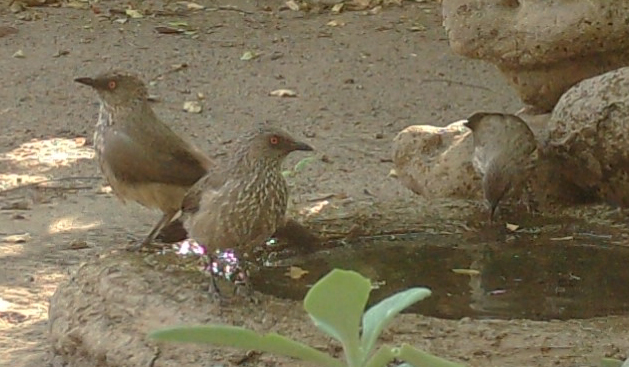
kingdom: Animalia
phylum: Chordata
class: Aves
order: Passeriformes
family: Leiothrichidae
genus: Turdoides
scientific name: Turdoides jardineii
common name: Arrow-marked babbler
